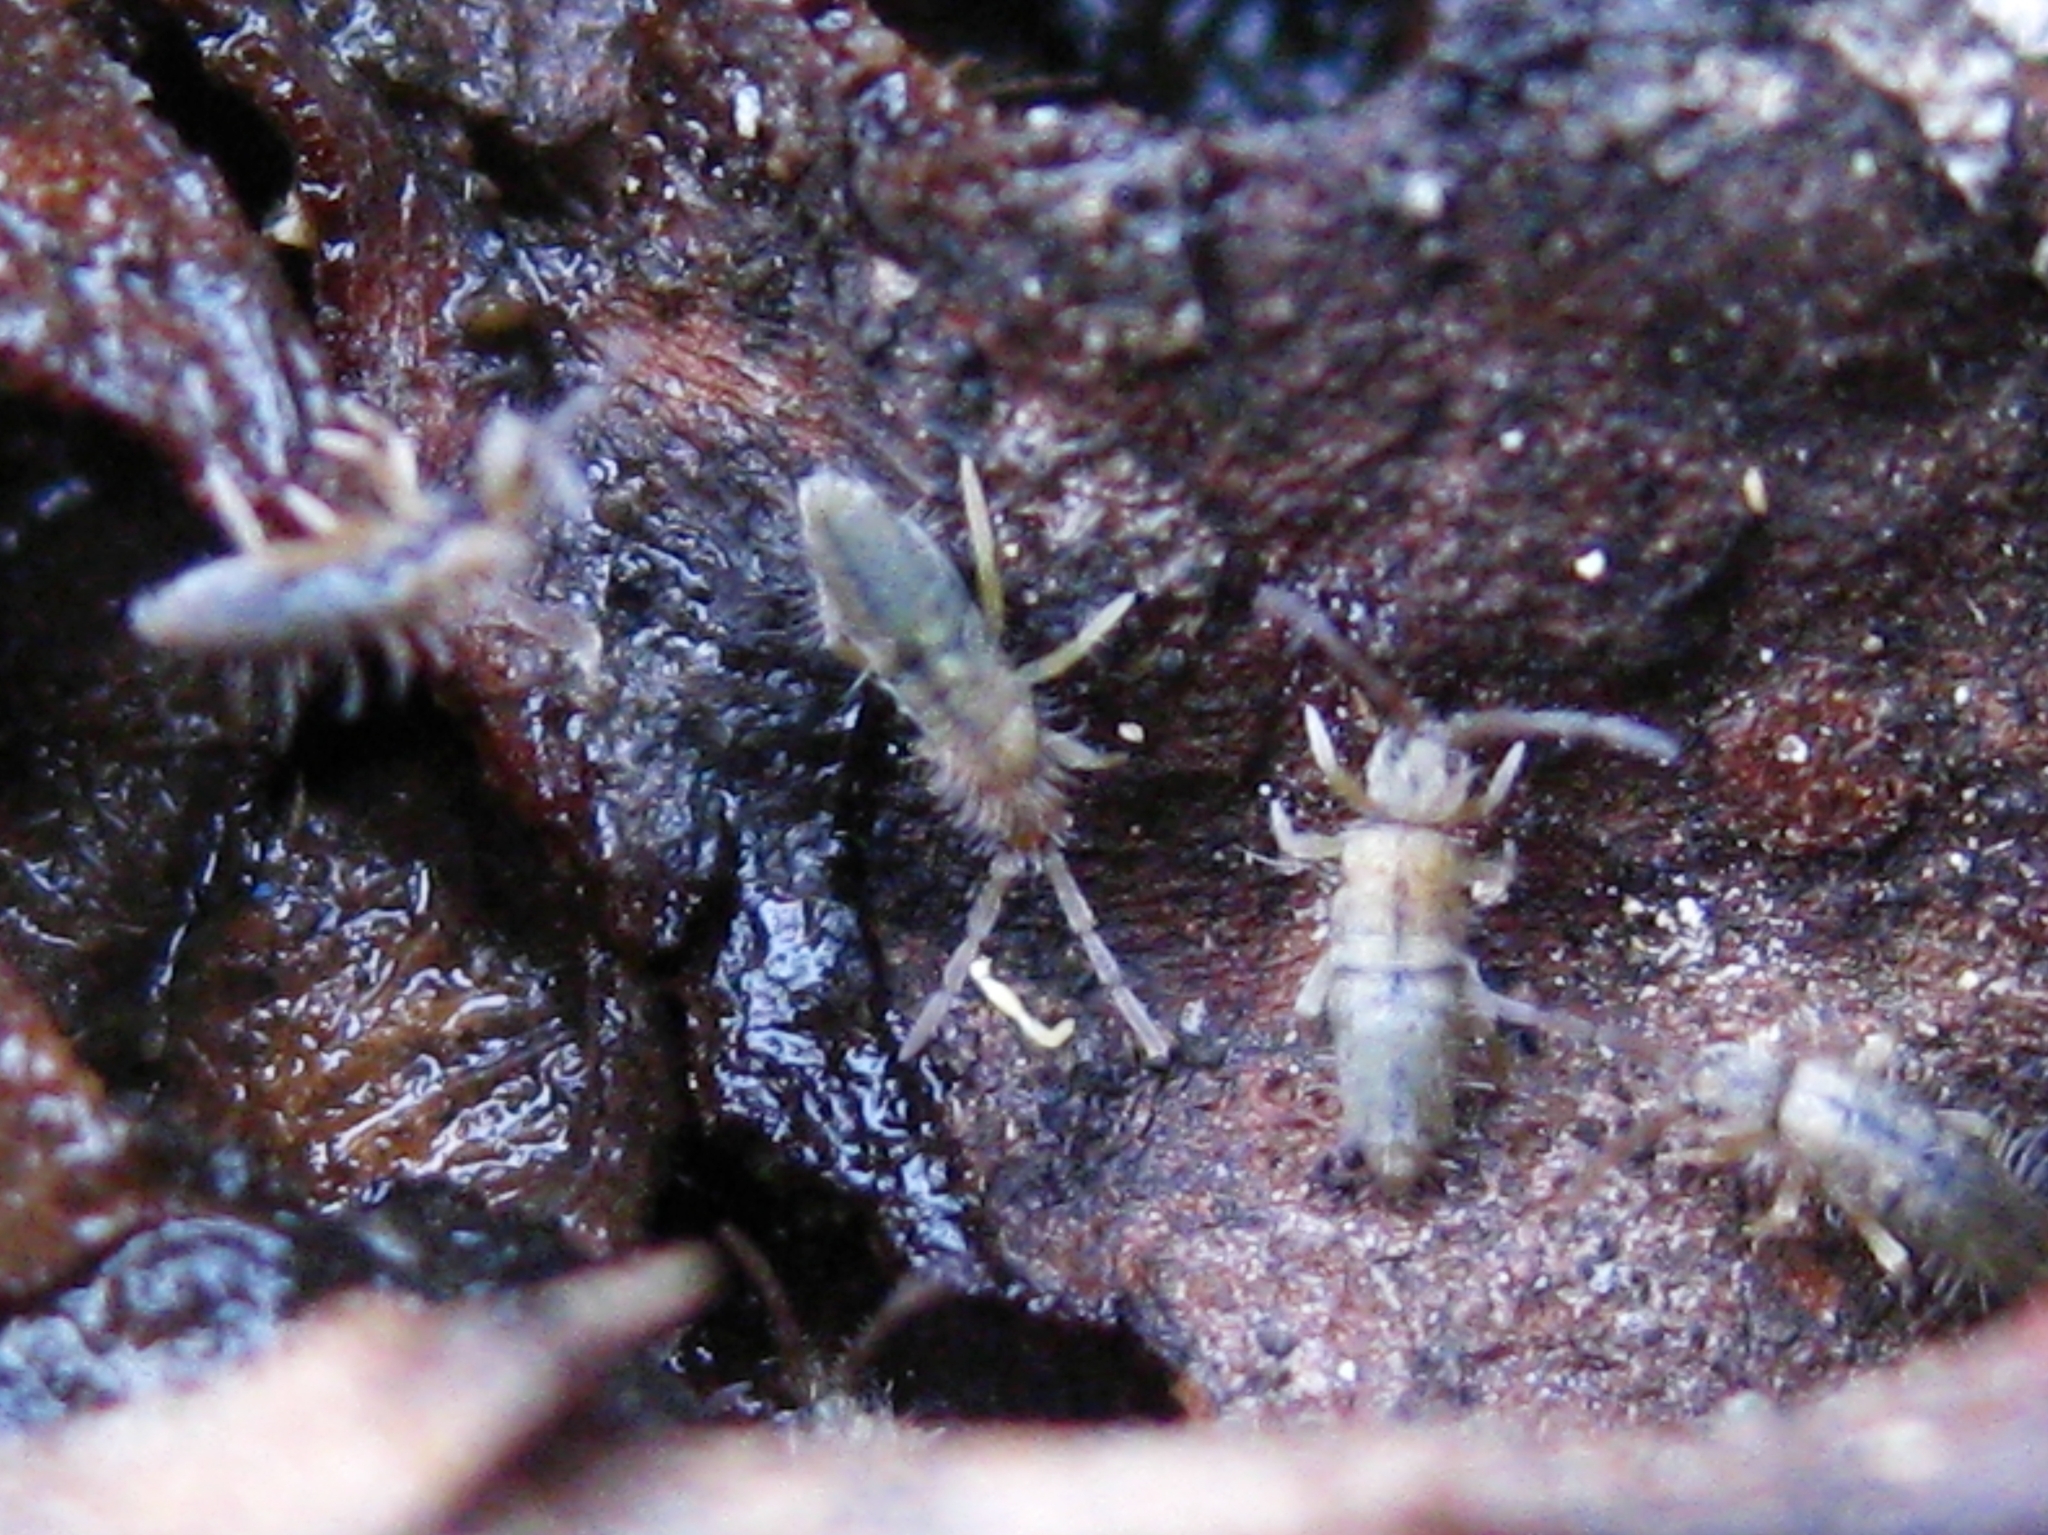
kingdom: Animalia
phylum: Arthropoda
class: Collembola
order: Entomobryomorpha
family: Entomobryidae
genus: Entomobrya
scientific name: Entomobrya
